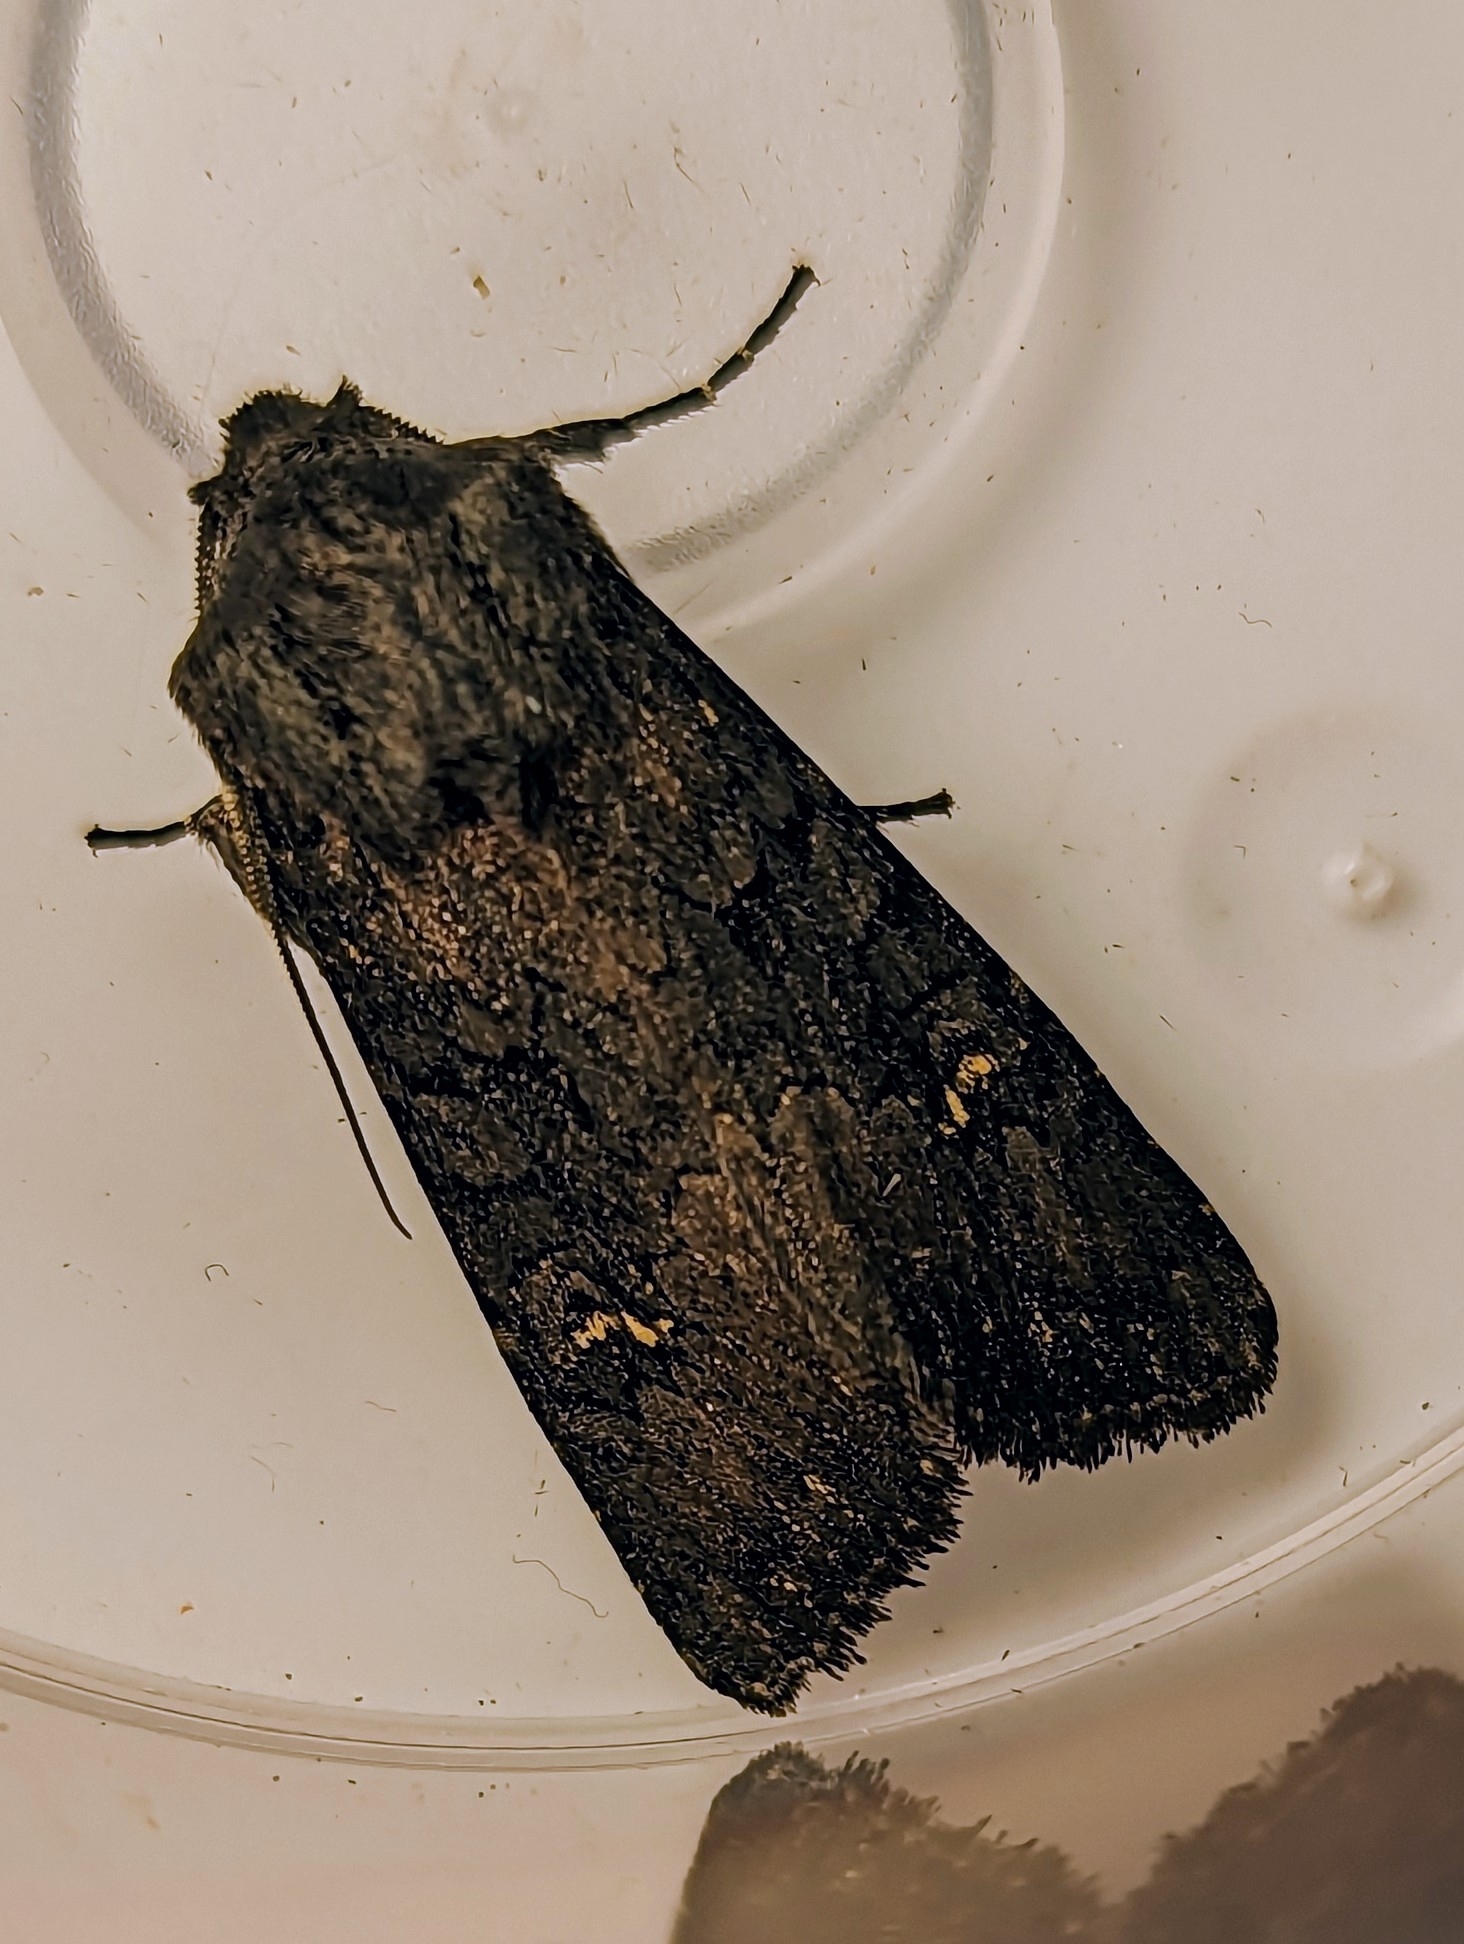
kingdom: Animalia
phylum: Arthropoda
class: Insecta
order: Lepidoptera
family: Noctuidae
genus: Aporophyla
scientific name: Aporophyla nigra
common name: Black rustic
